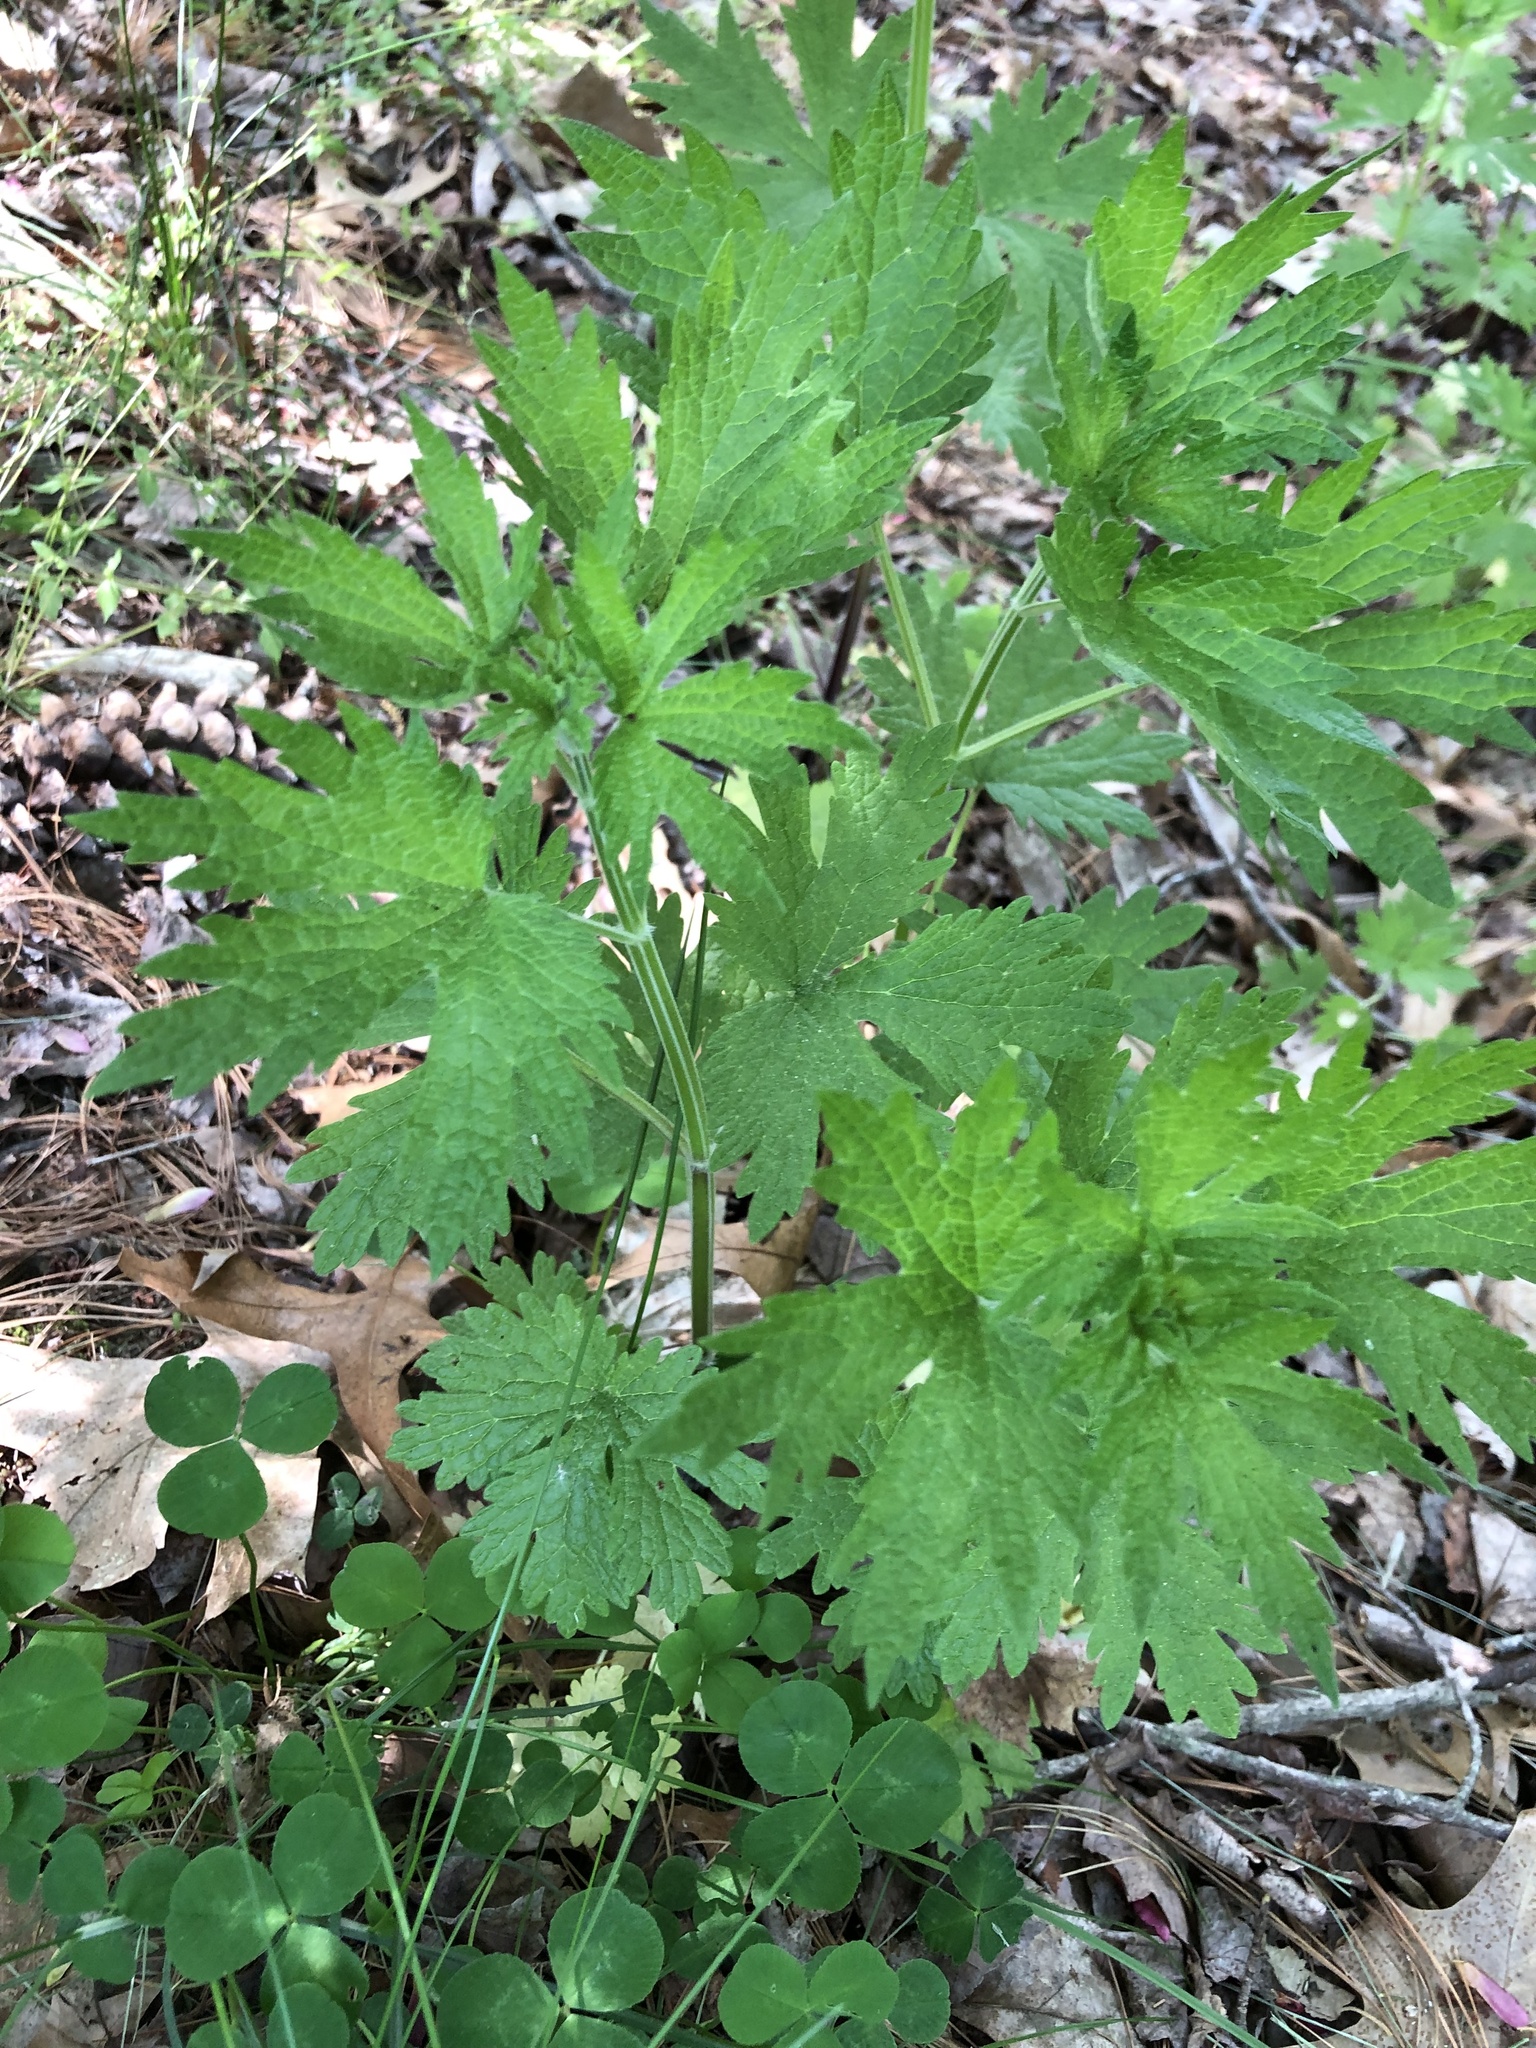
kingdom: Plantae
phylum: Tracheophyta
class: Magnoliopsida
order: Lamiales
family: Lamiaceae
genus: Leonurus
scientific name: Leonurus cardiaca
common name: Motherwort
